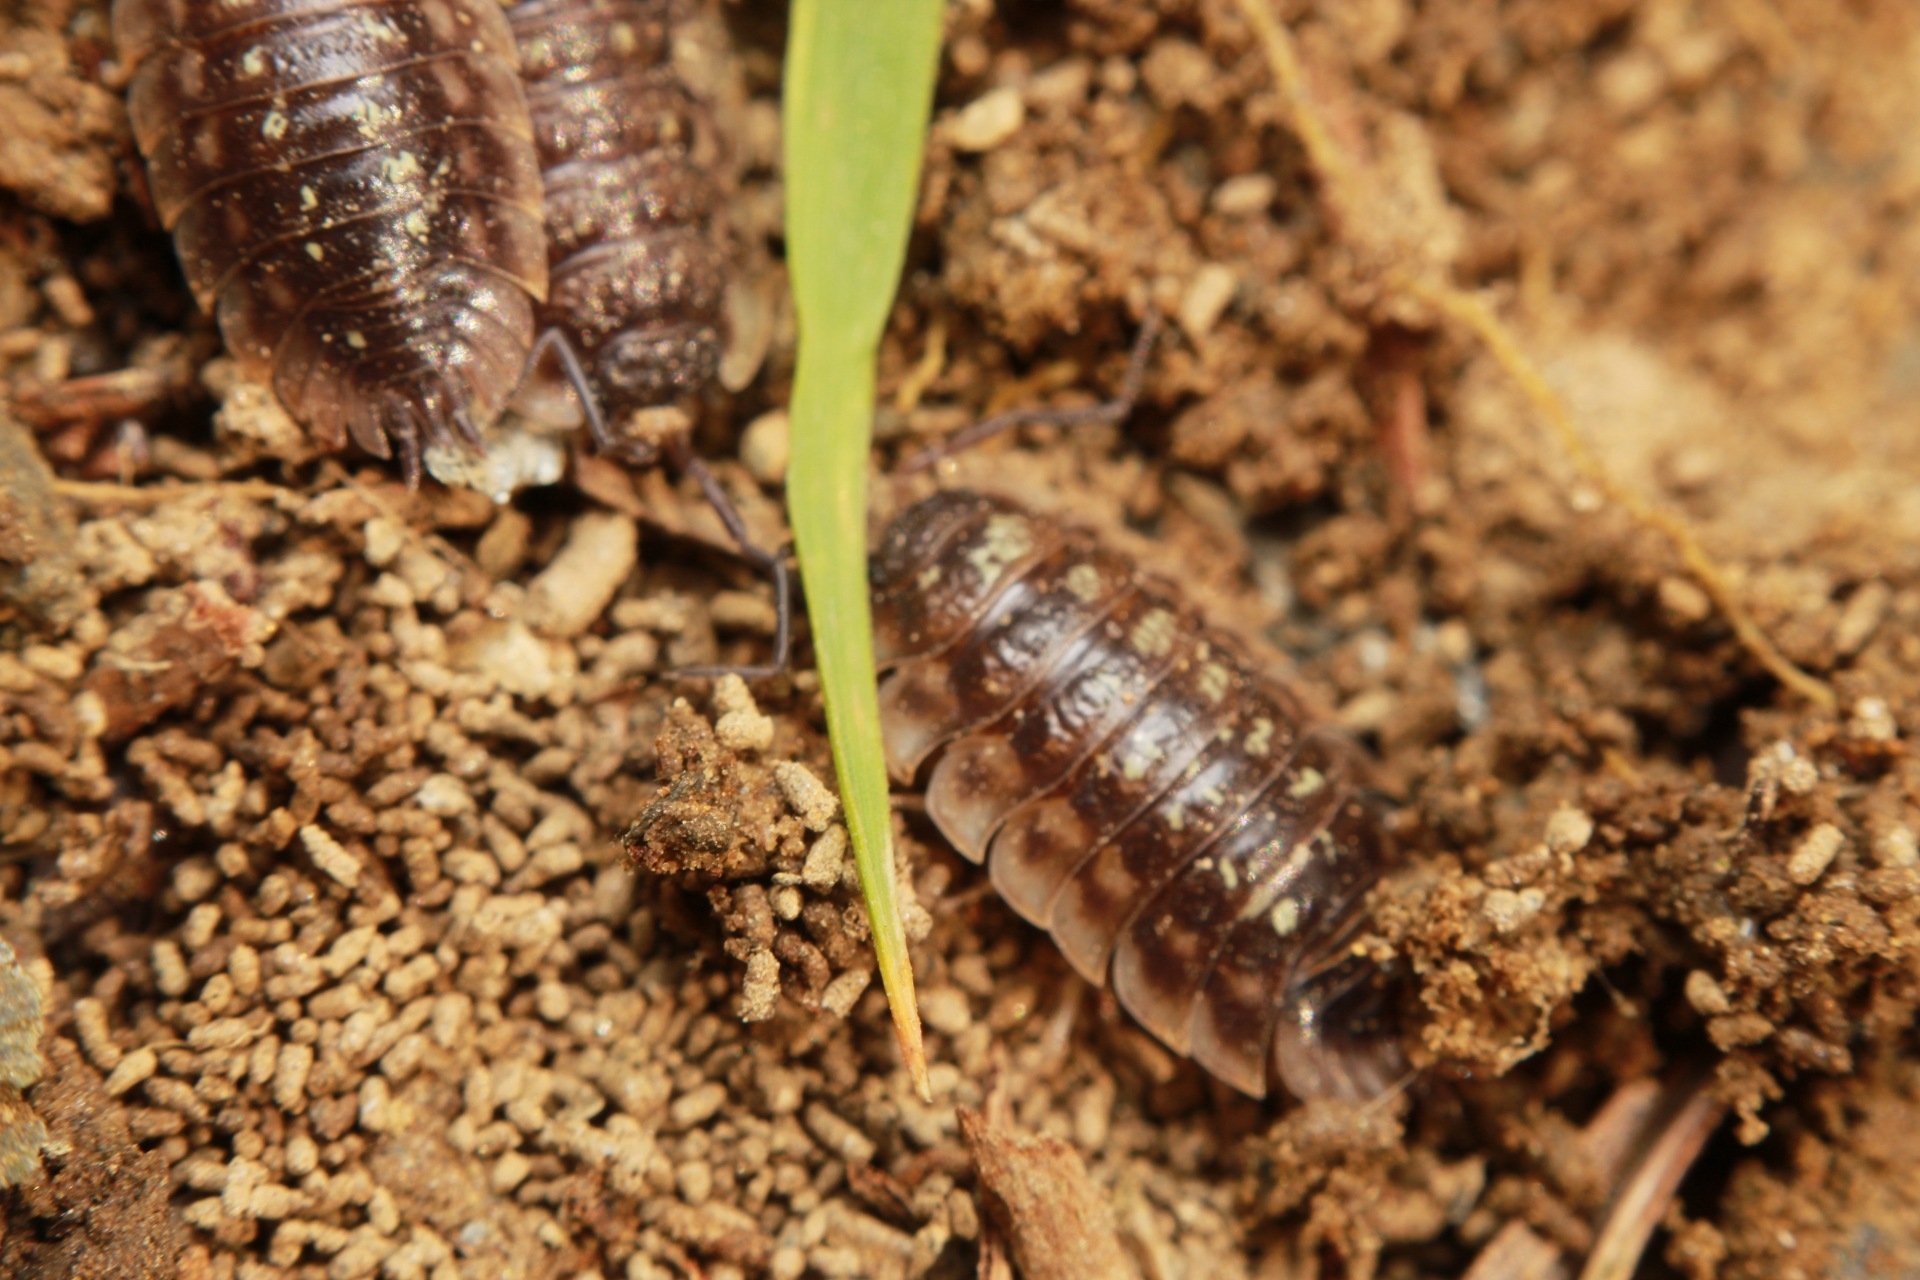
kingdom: Animalia
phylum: Arthropoda
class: Malacostraca
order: Isopoda
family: Oniscidae
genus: Oniscus
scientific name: Oniscus asellus
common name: Common shiny woodlouse
